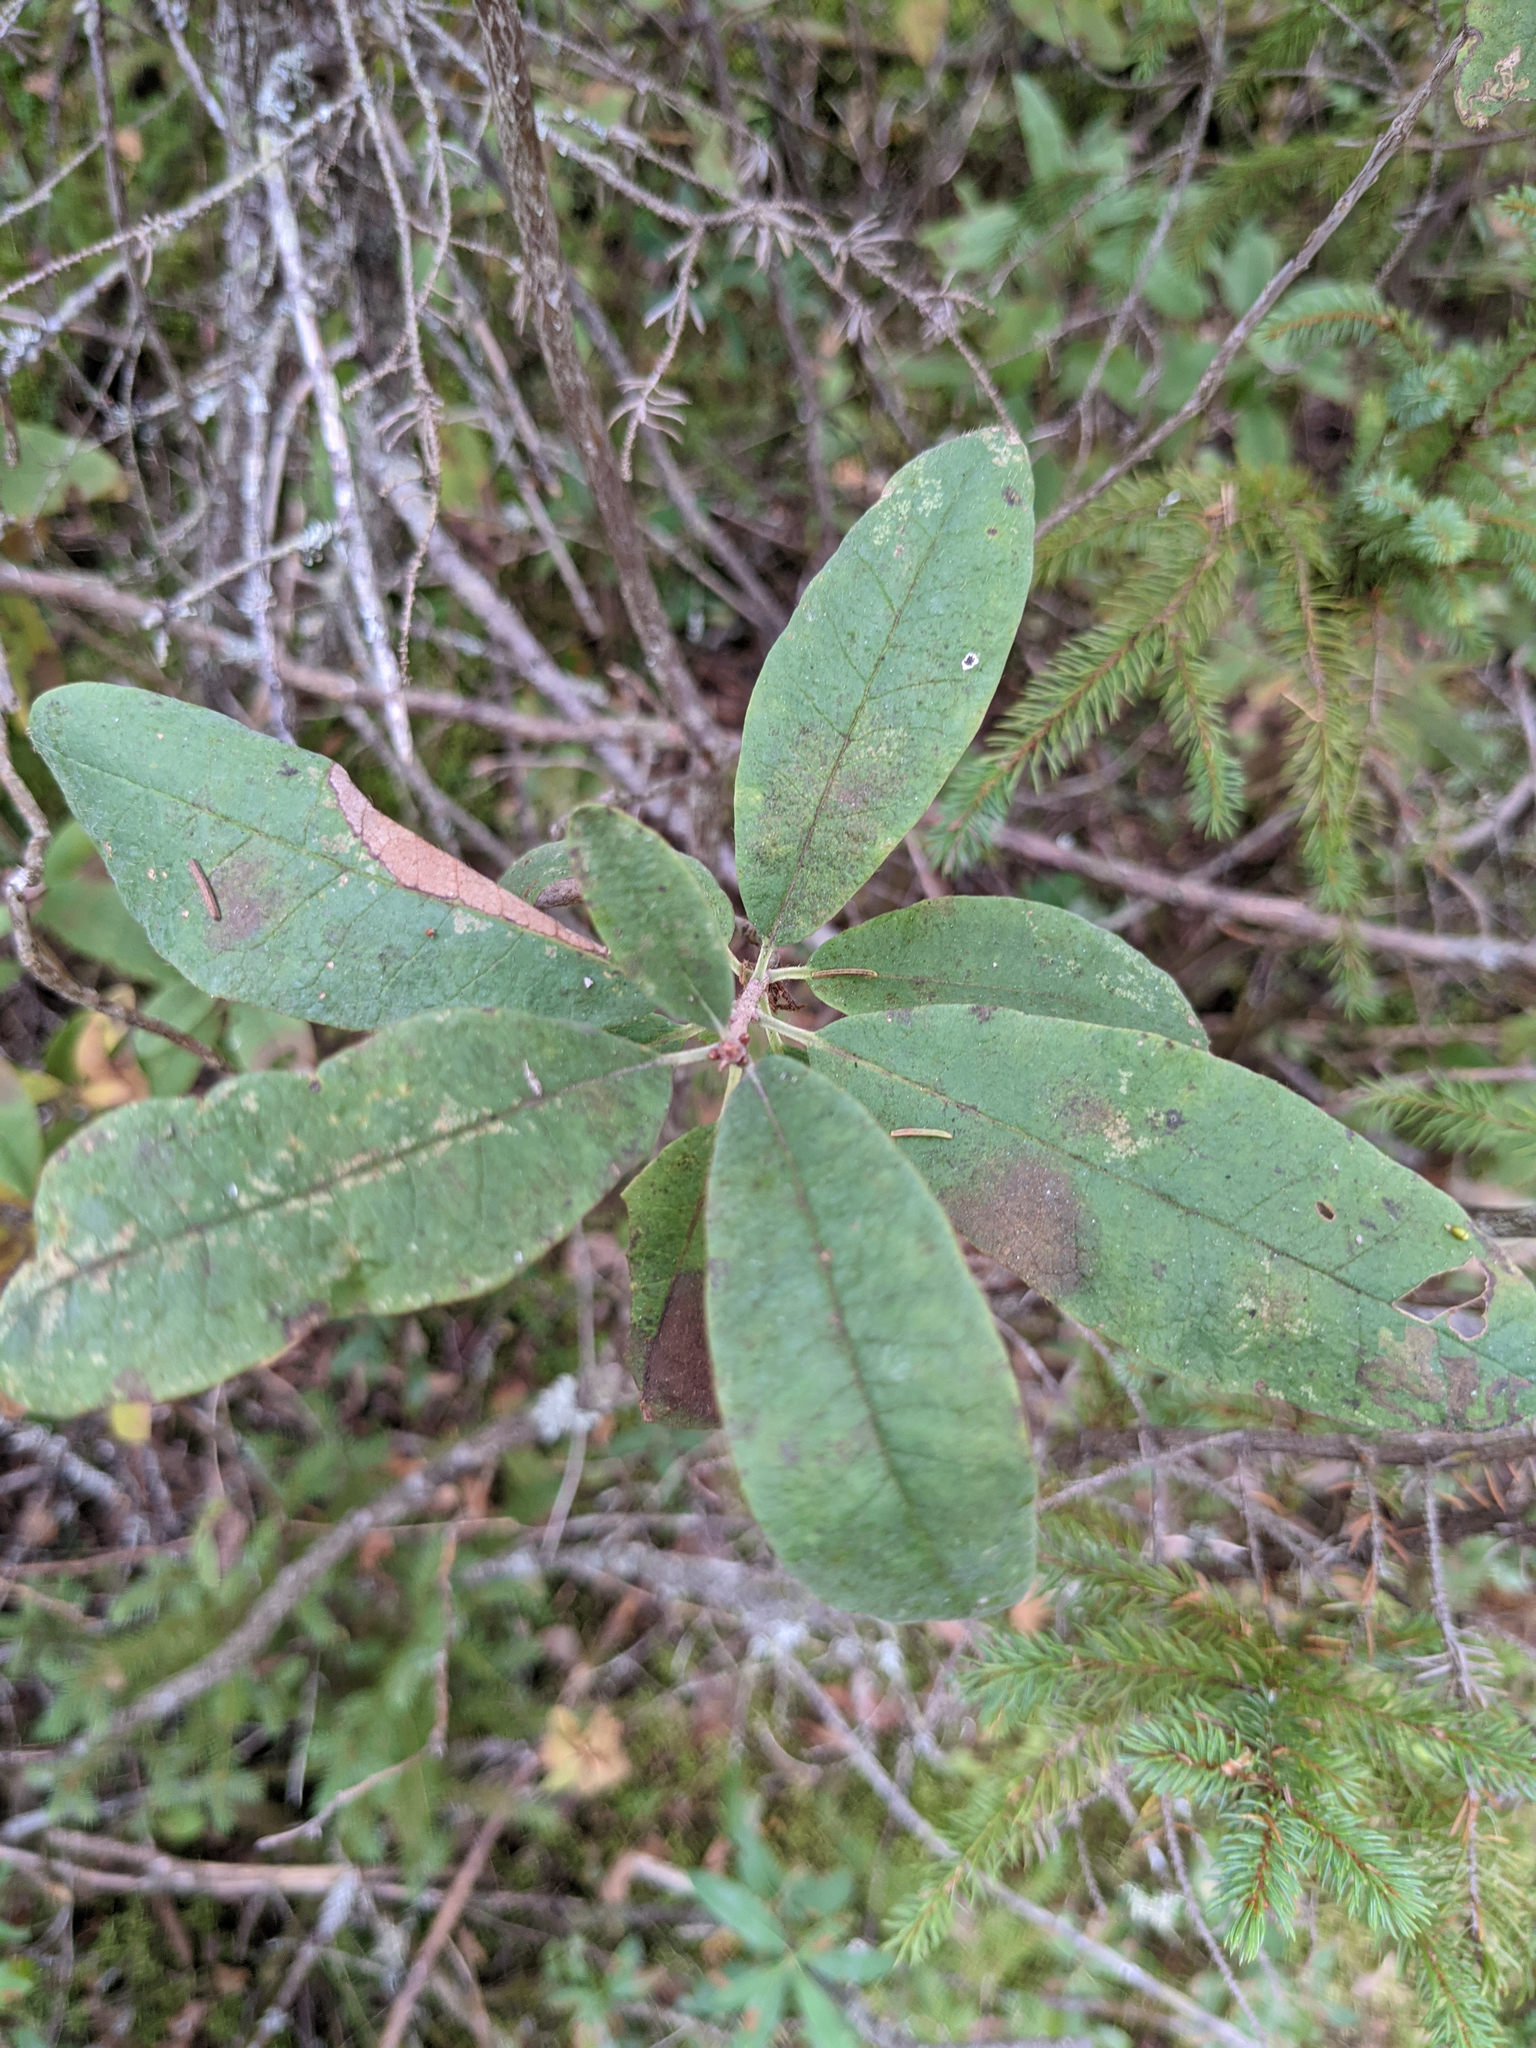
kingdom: Plantae
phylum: Tracheophyta
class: Magnoliopsida
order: Ericales
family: Ericaceae
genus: Rhododendron
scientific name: Rhododendron canadense
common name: Rhodora
